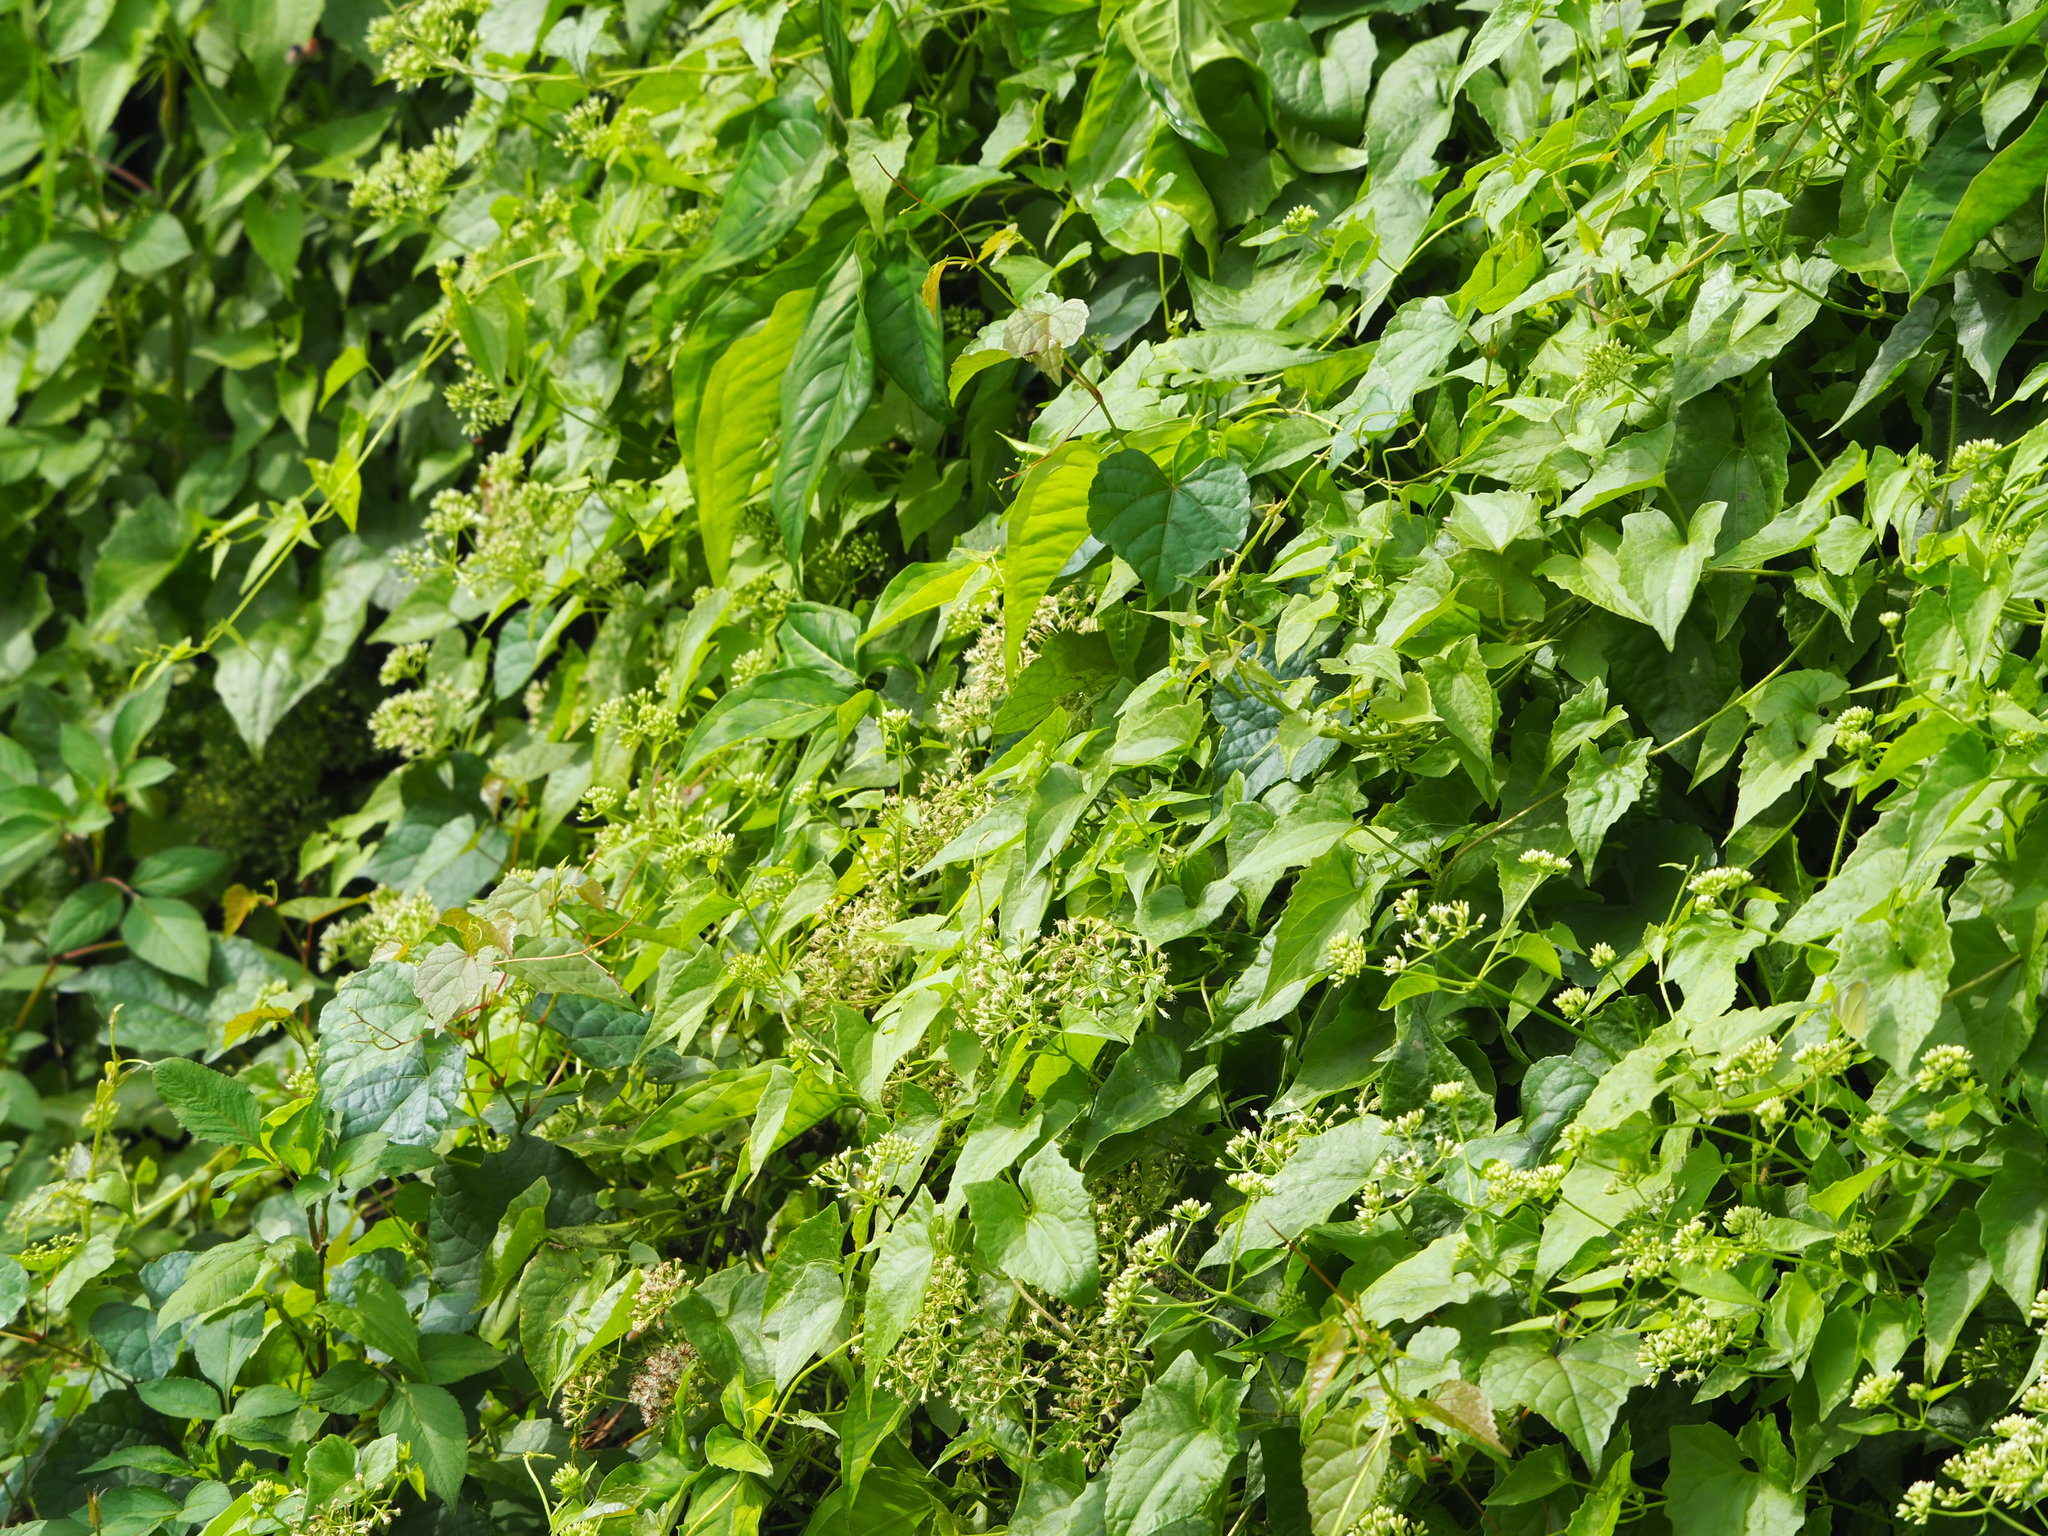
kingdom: Plantae
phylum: Tracheophyta
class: Magnoliopsida
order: Asterales
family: Asteraceae
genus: Mikania
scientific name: Mikania micrantha
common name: Mile-a-minute
